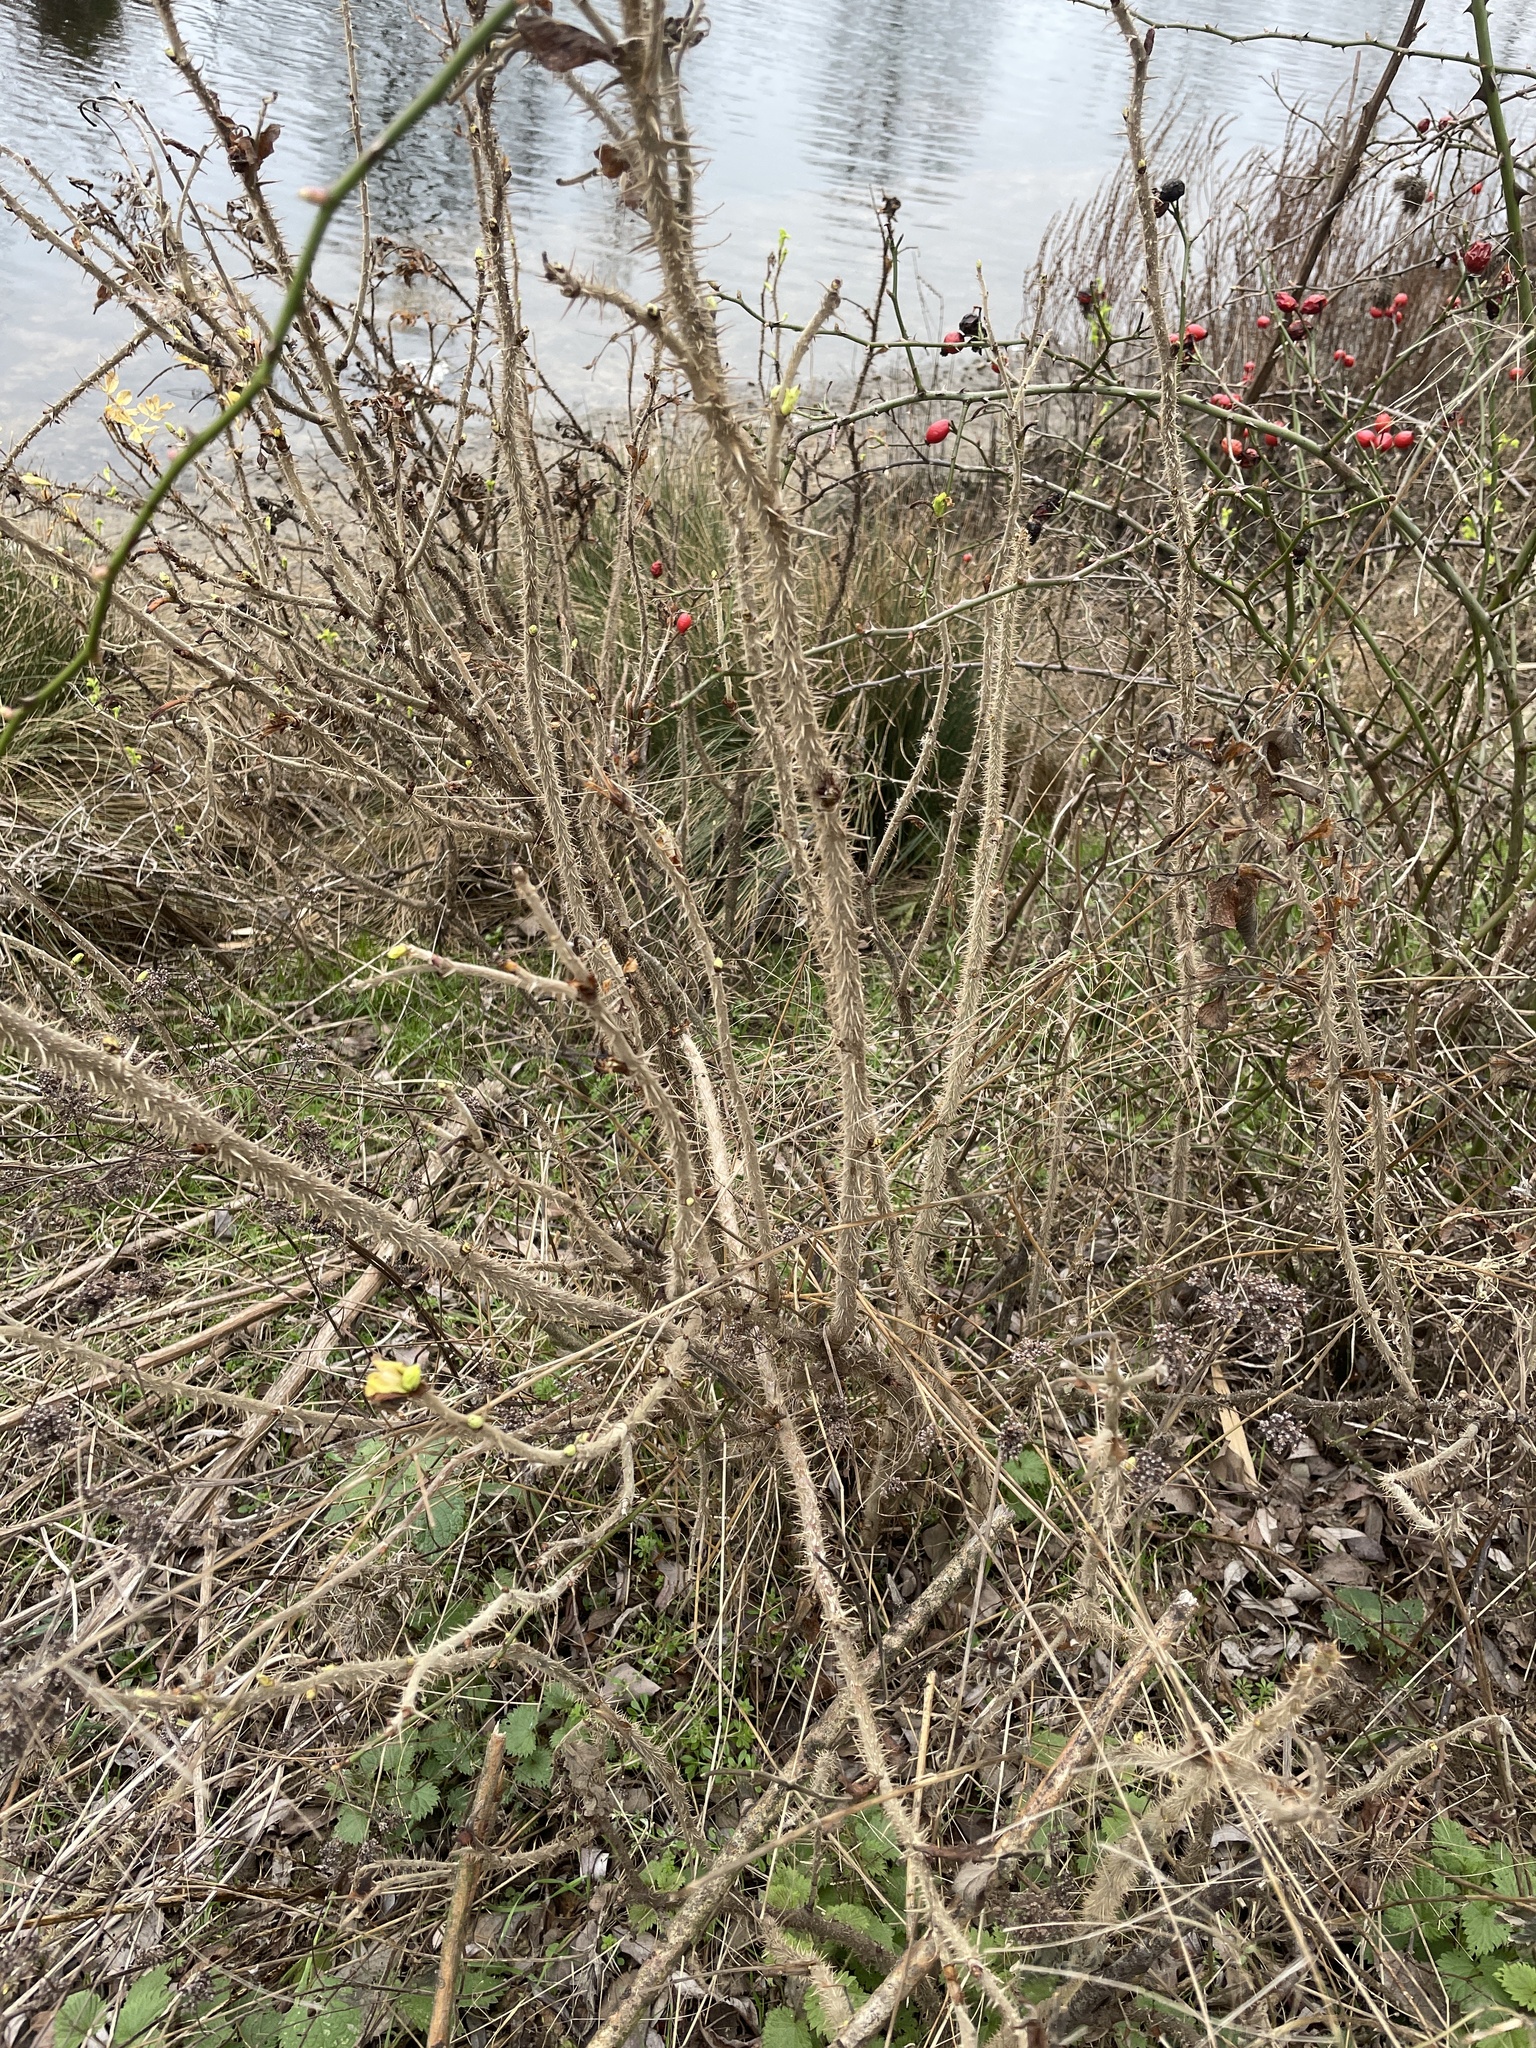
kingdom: Plantae
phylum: Tracheophyta
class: Magnoliopsida
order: Rosales
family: Rosaceae
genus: Rosa
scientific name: Rosa rugosa
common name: Japanese rose
